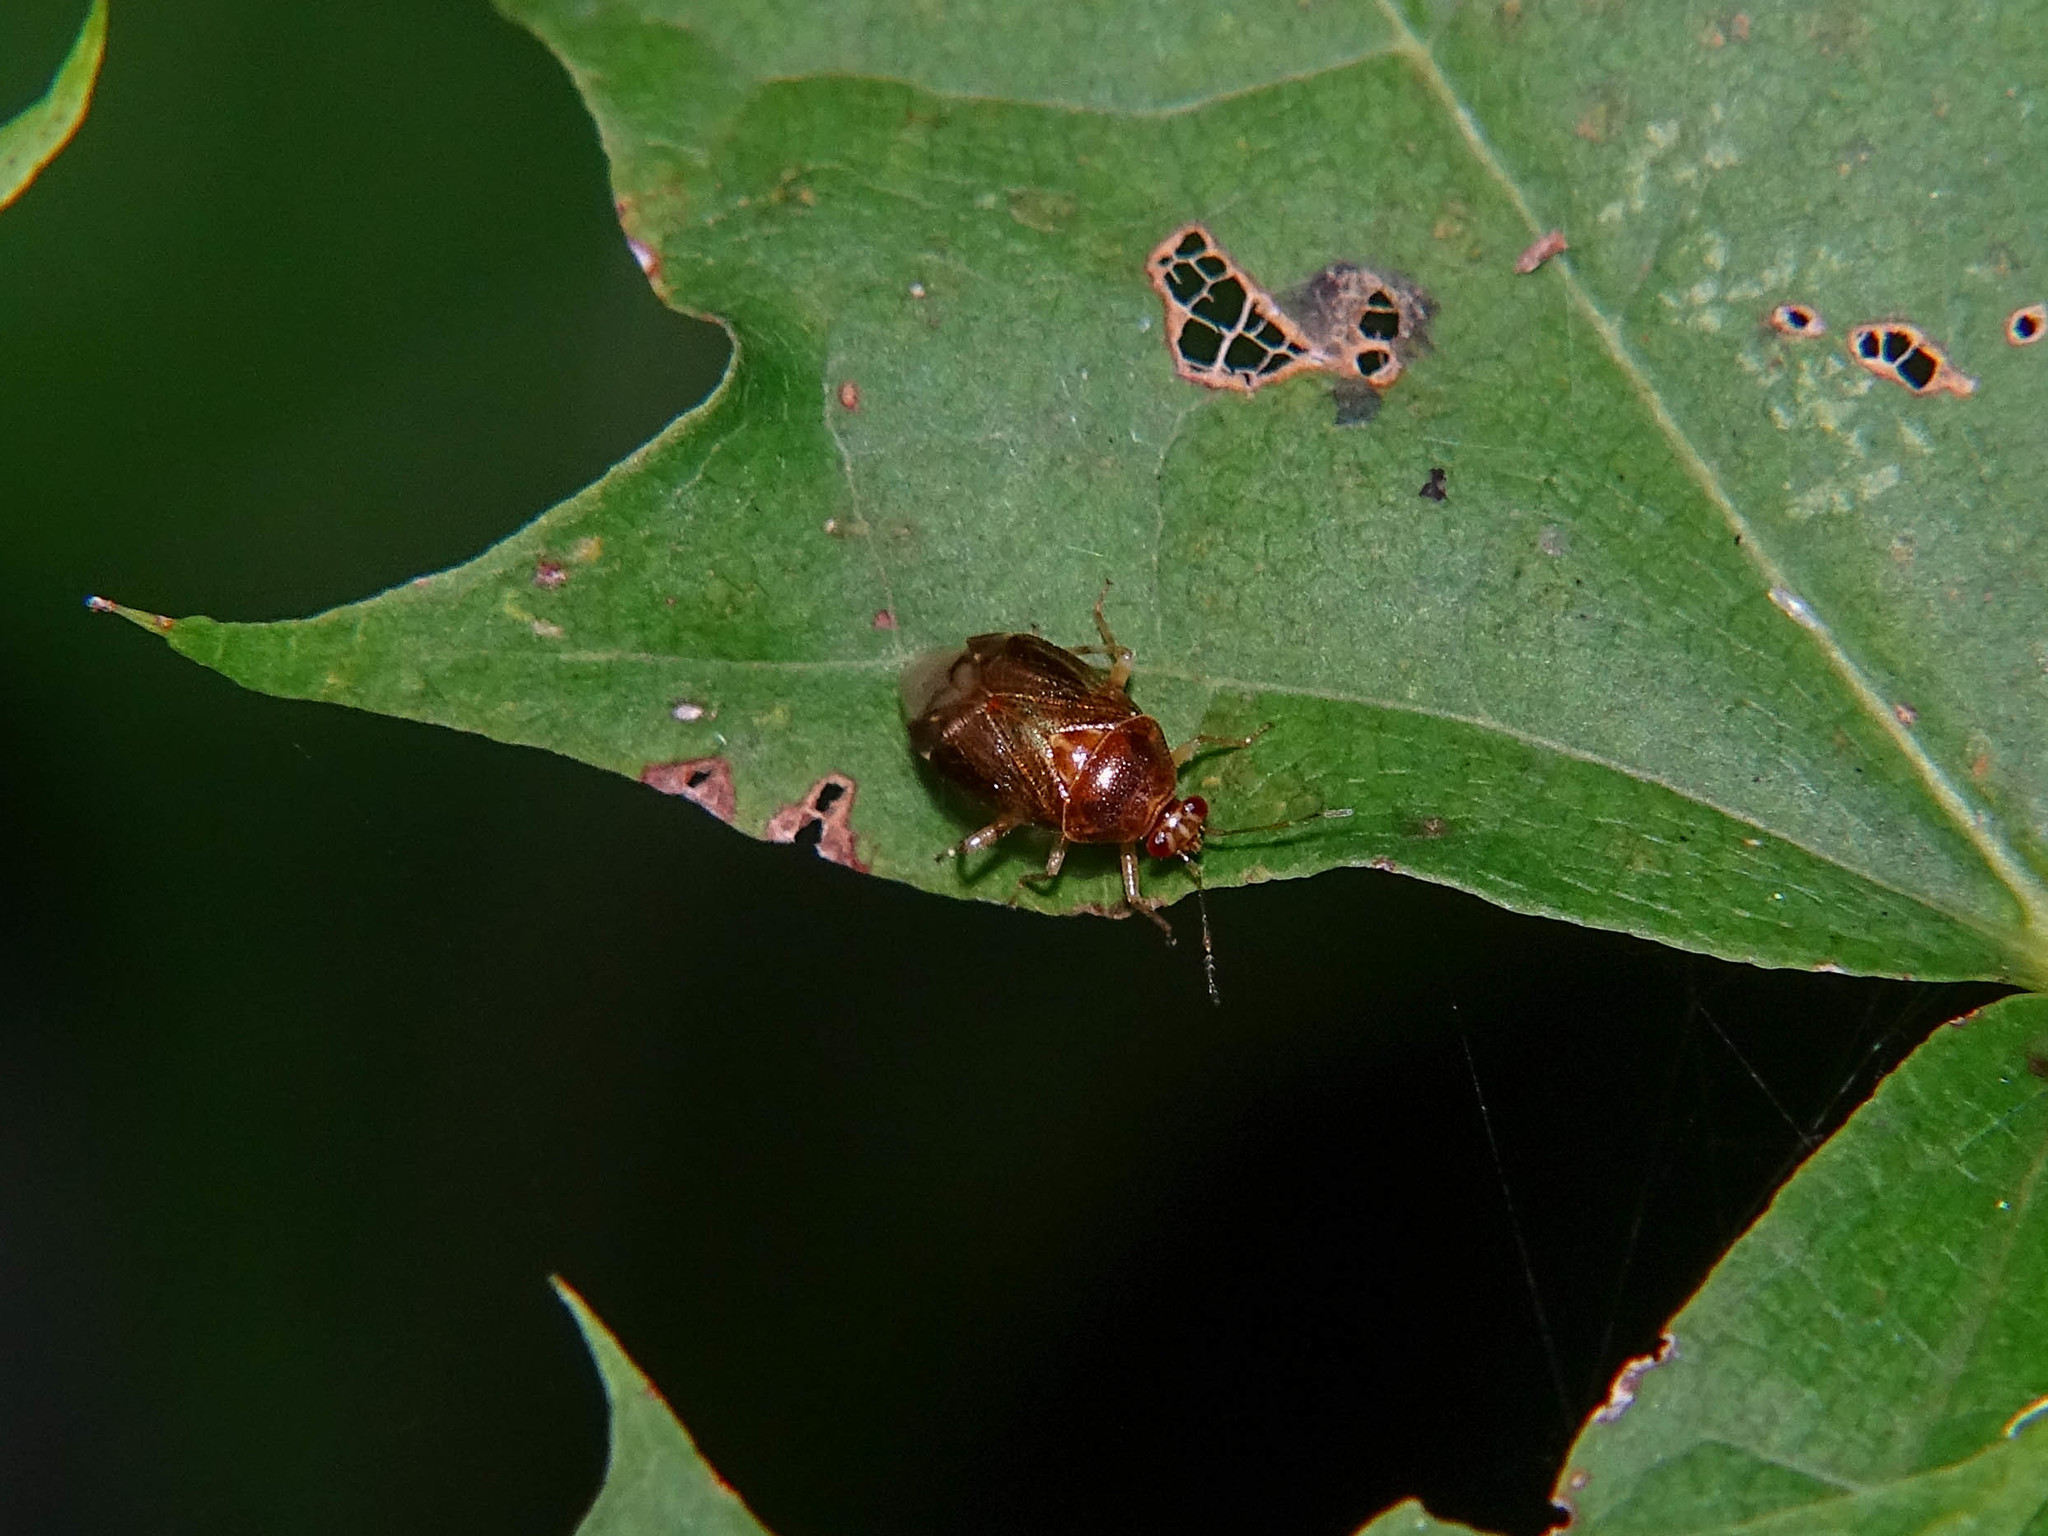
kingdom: Animalia
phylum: Arthropoda
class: Insecta
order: Hemiptera
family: Miridae
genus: Deraeocoris
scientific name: Deraeocoris lutescens
